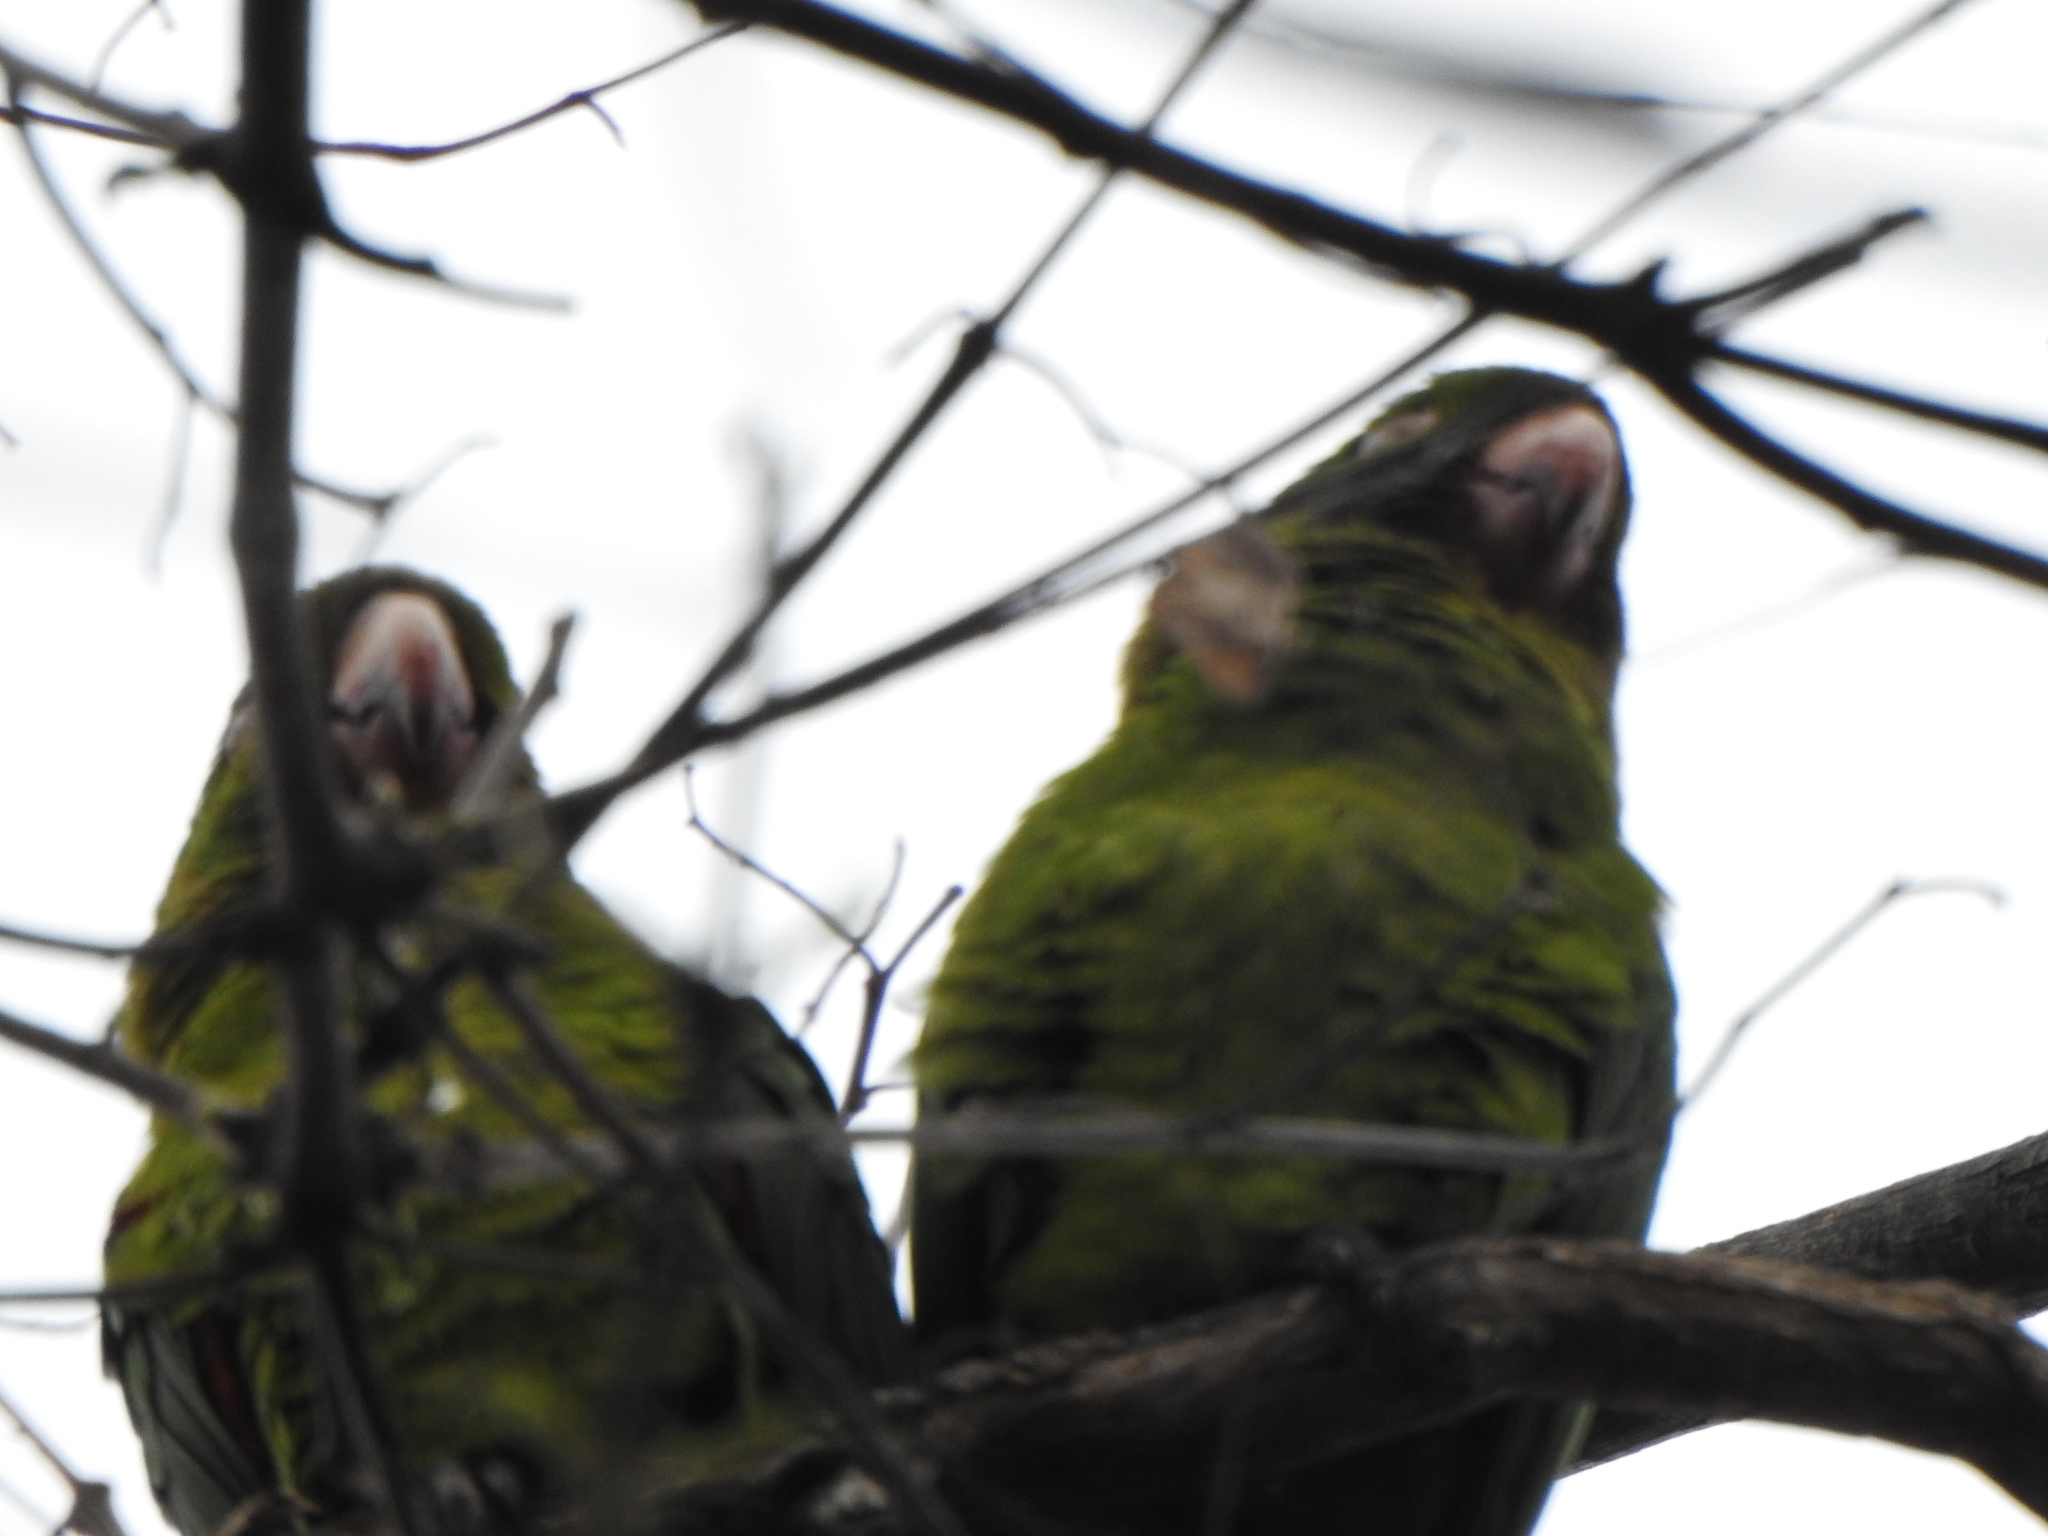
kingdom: Animalia
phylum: Chordata
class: Aves
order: Psittaciformes
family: Psittacidae
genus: Aratinga
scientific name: Aratinga leucophthalma
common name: White-eyed parakeet
